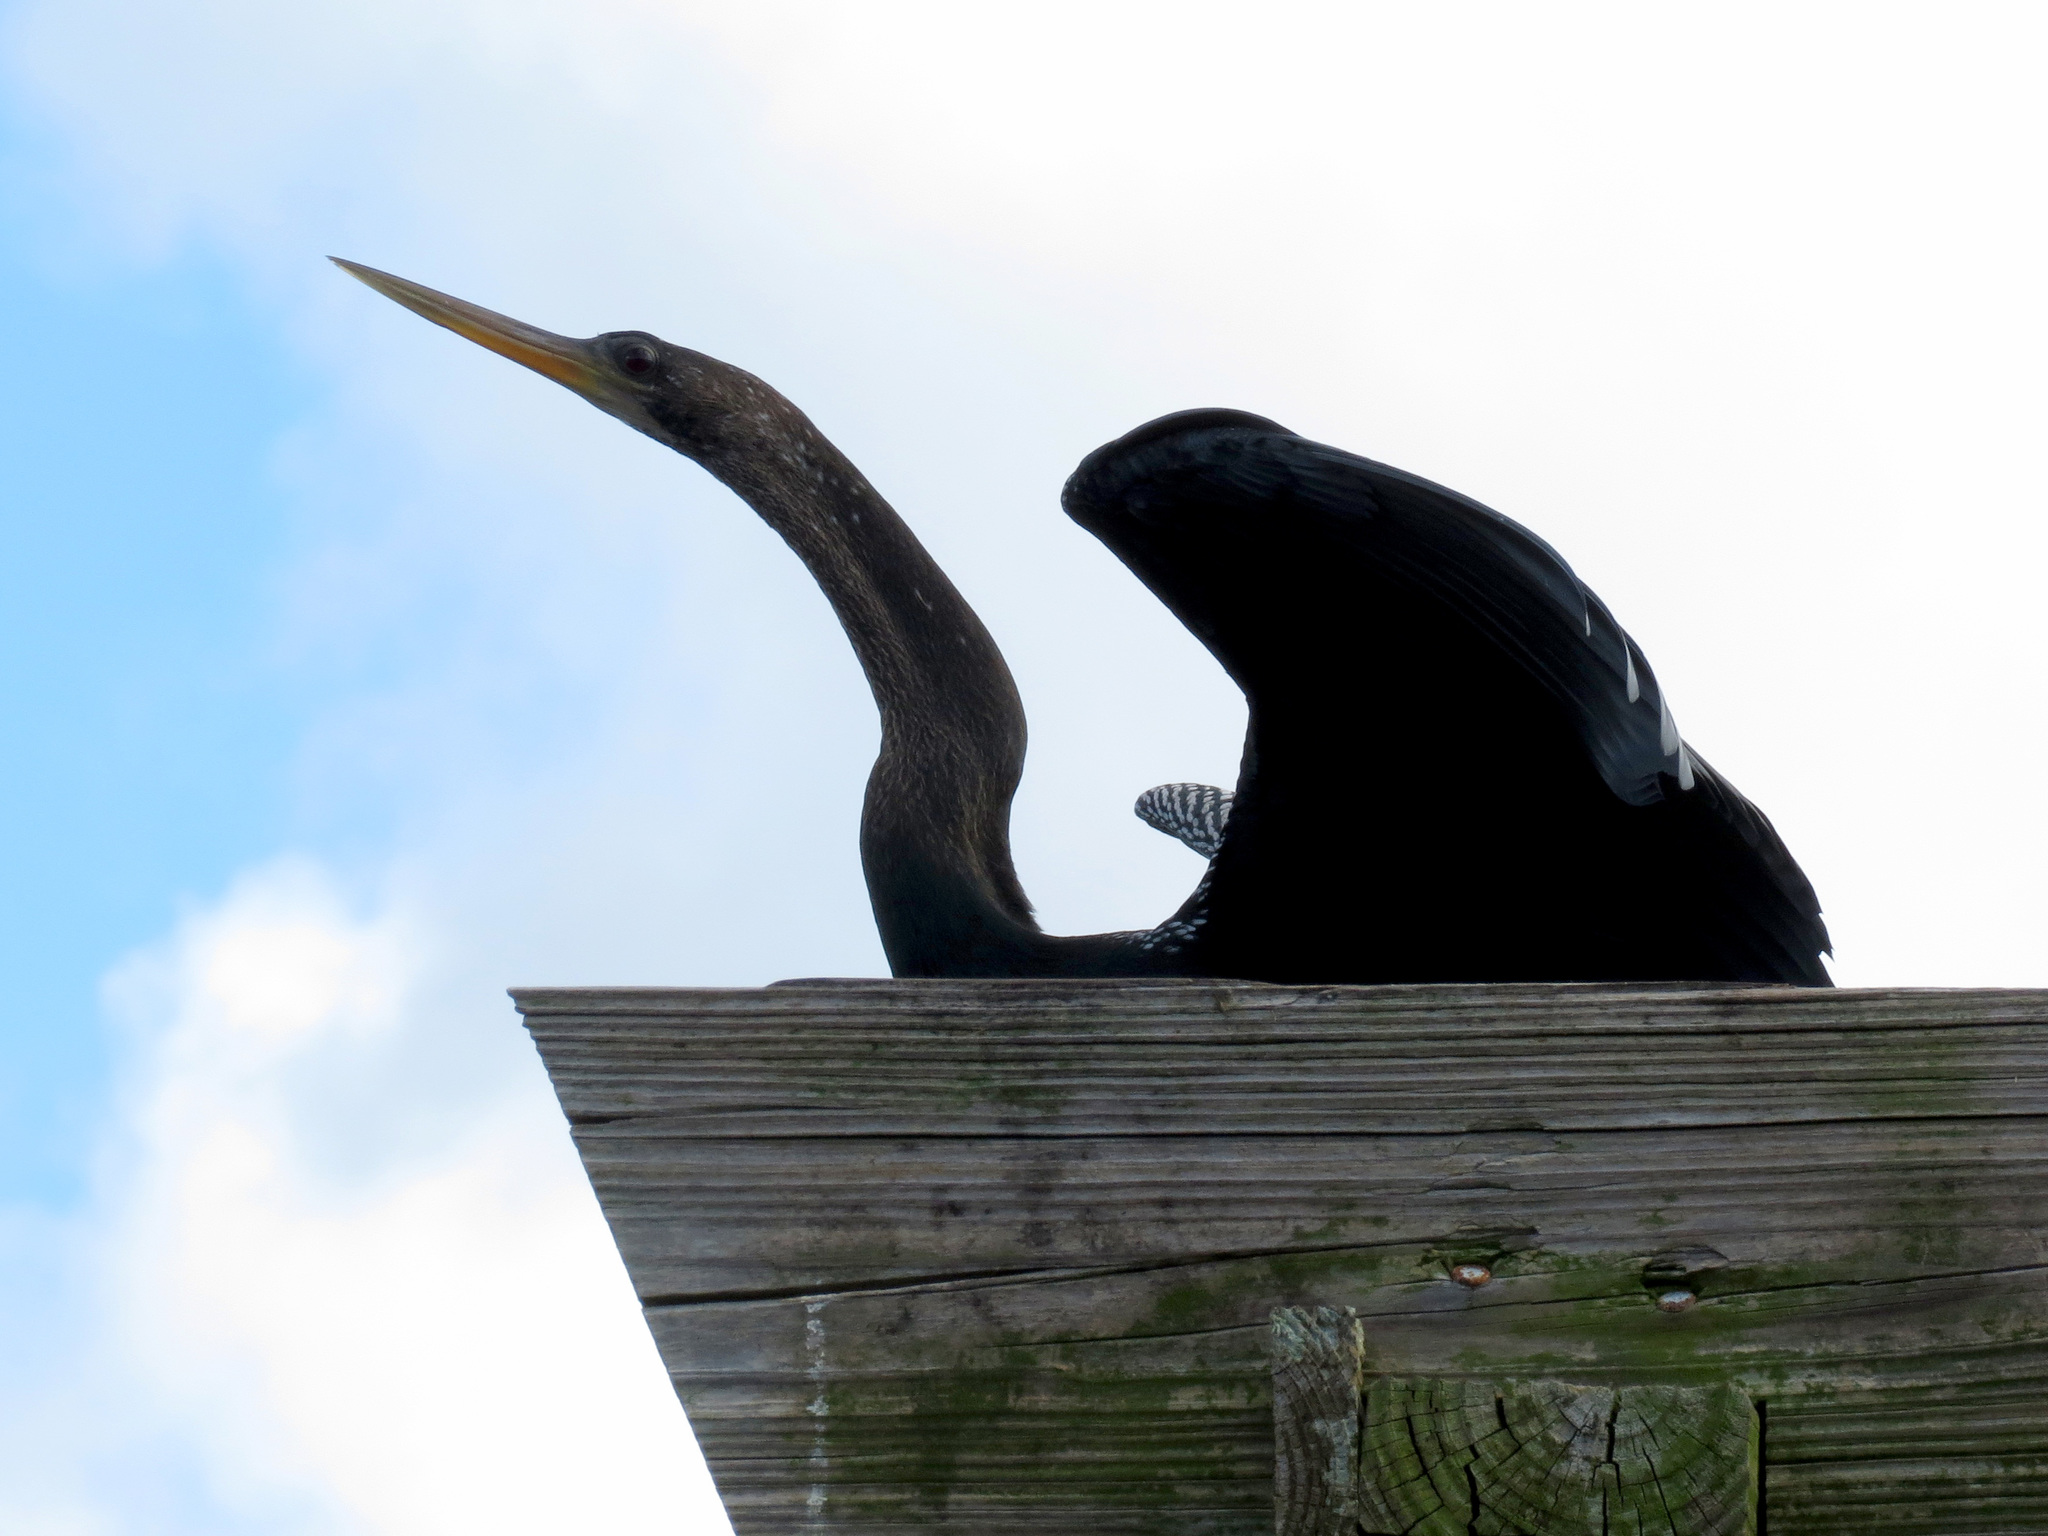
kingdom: Animalia
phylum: Chordata
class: Aves
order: Suliformes
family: Anhingidae
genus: Anhinga
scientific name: Anhinga anhinga
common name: Anhinga
